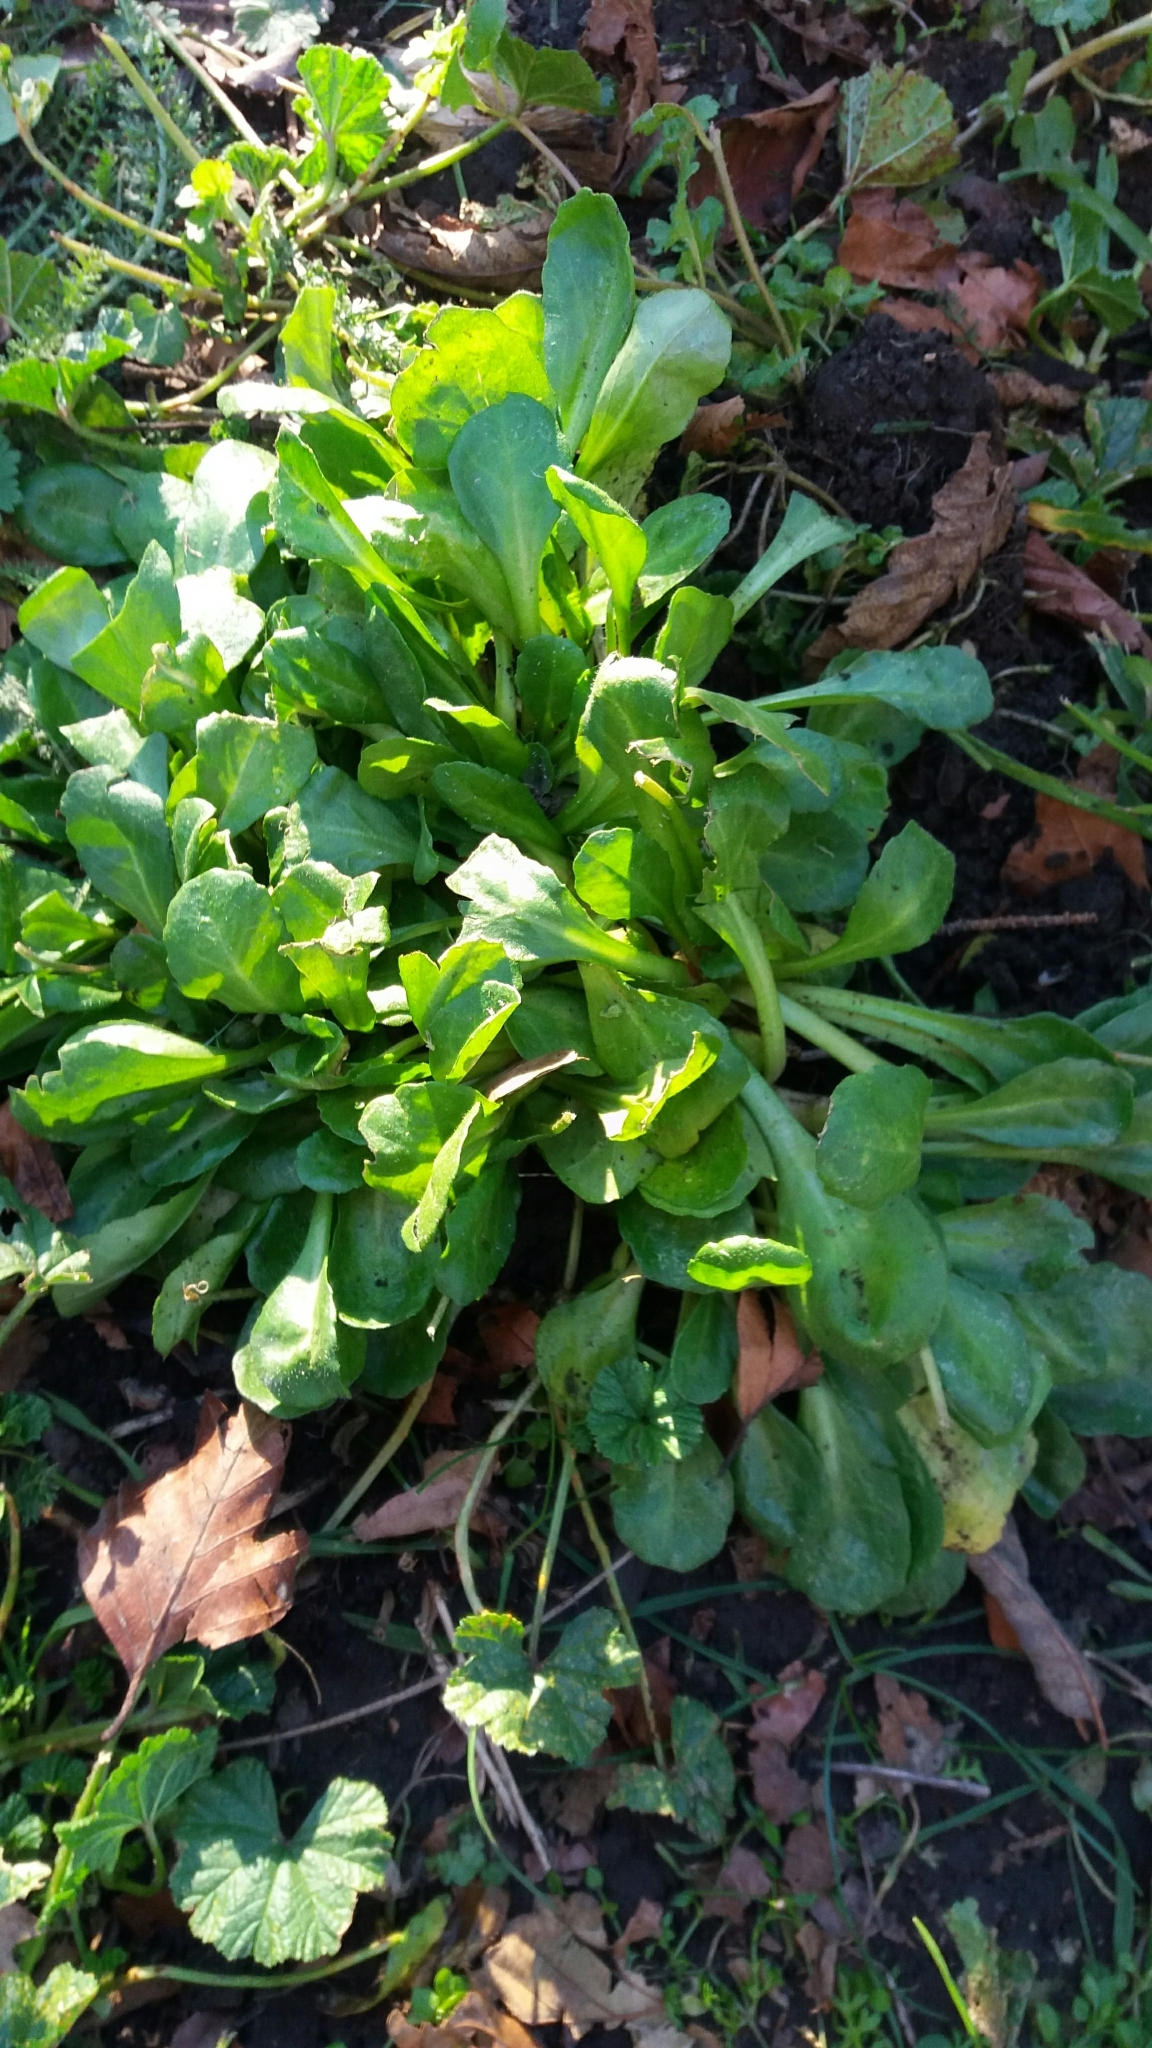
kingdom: Plantae
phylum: Tracheophyta
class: Magnoliopsida
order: Asterales
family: Asteraceae
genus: Bellis
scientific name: Bellis perennis
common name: Lawndaisy
